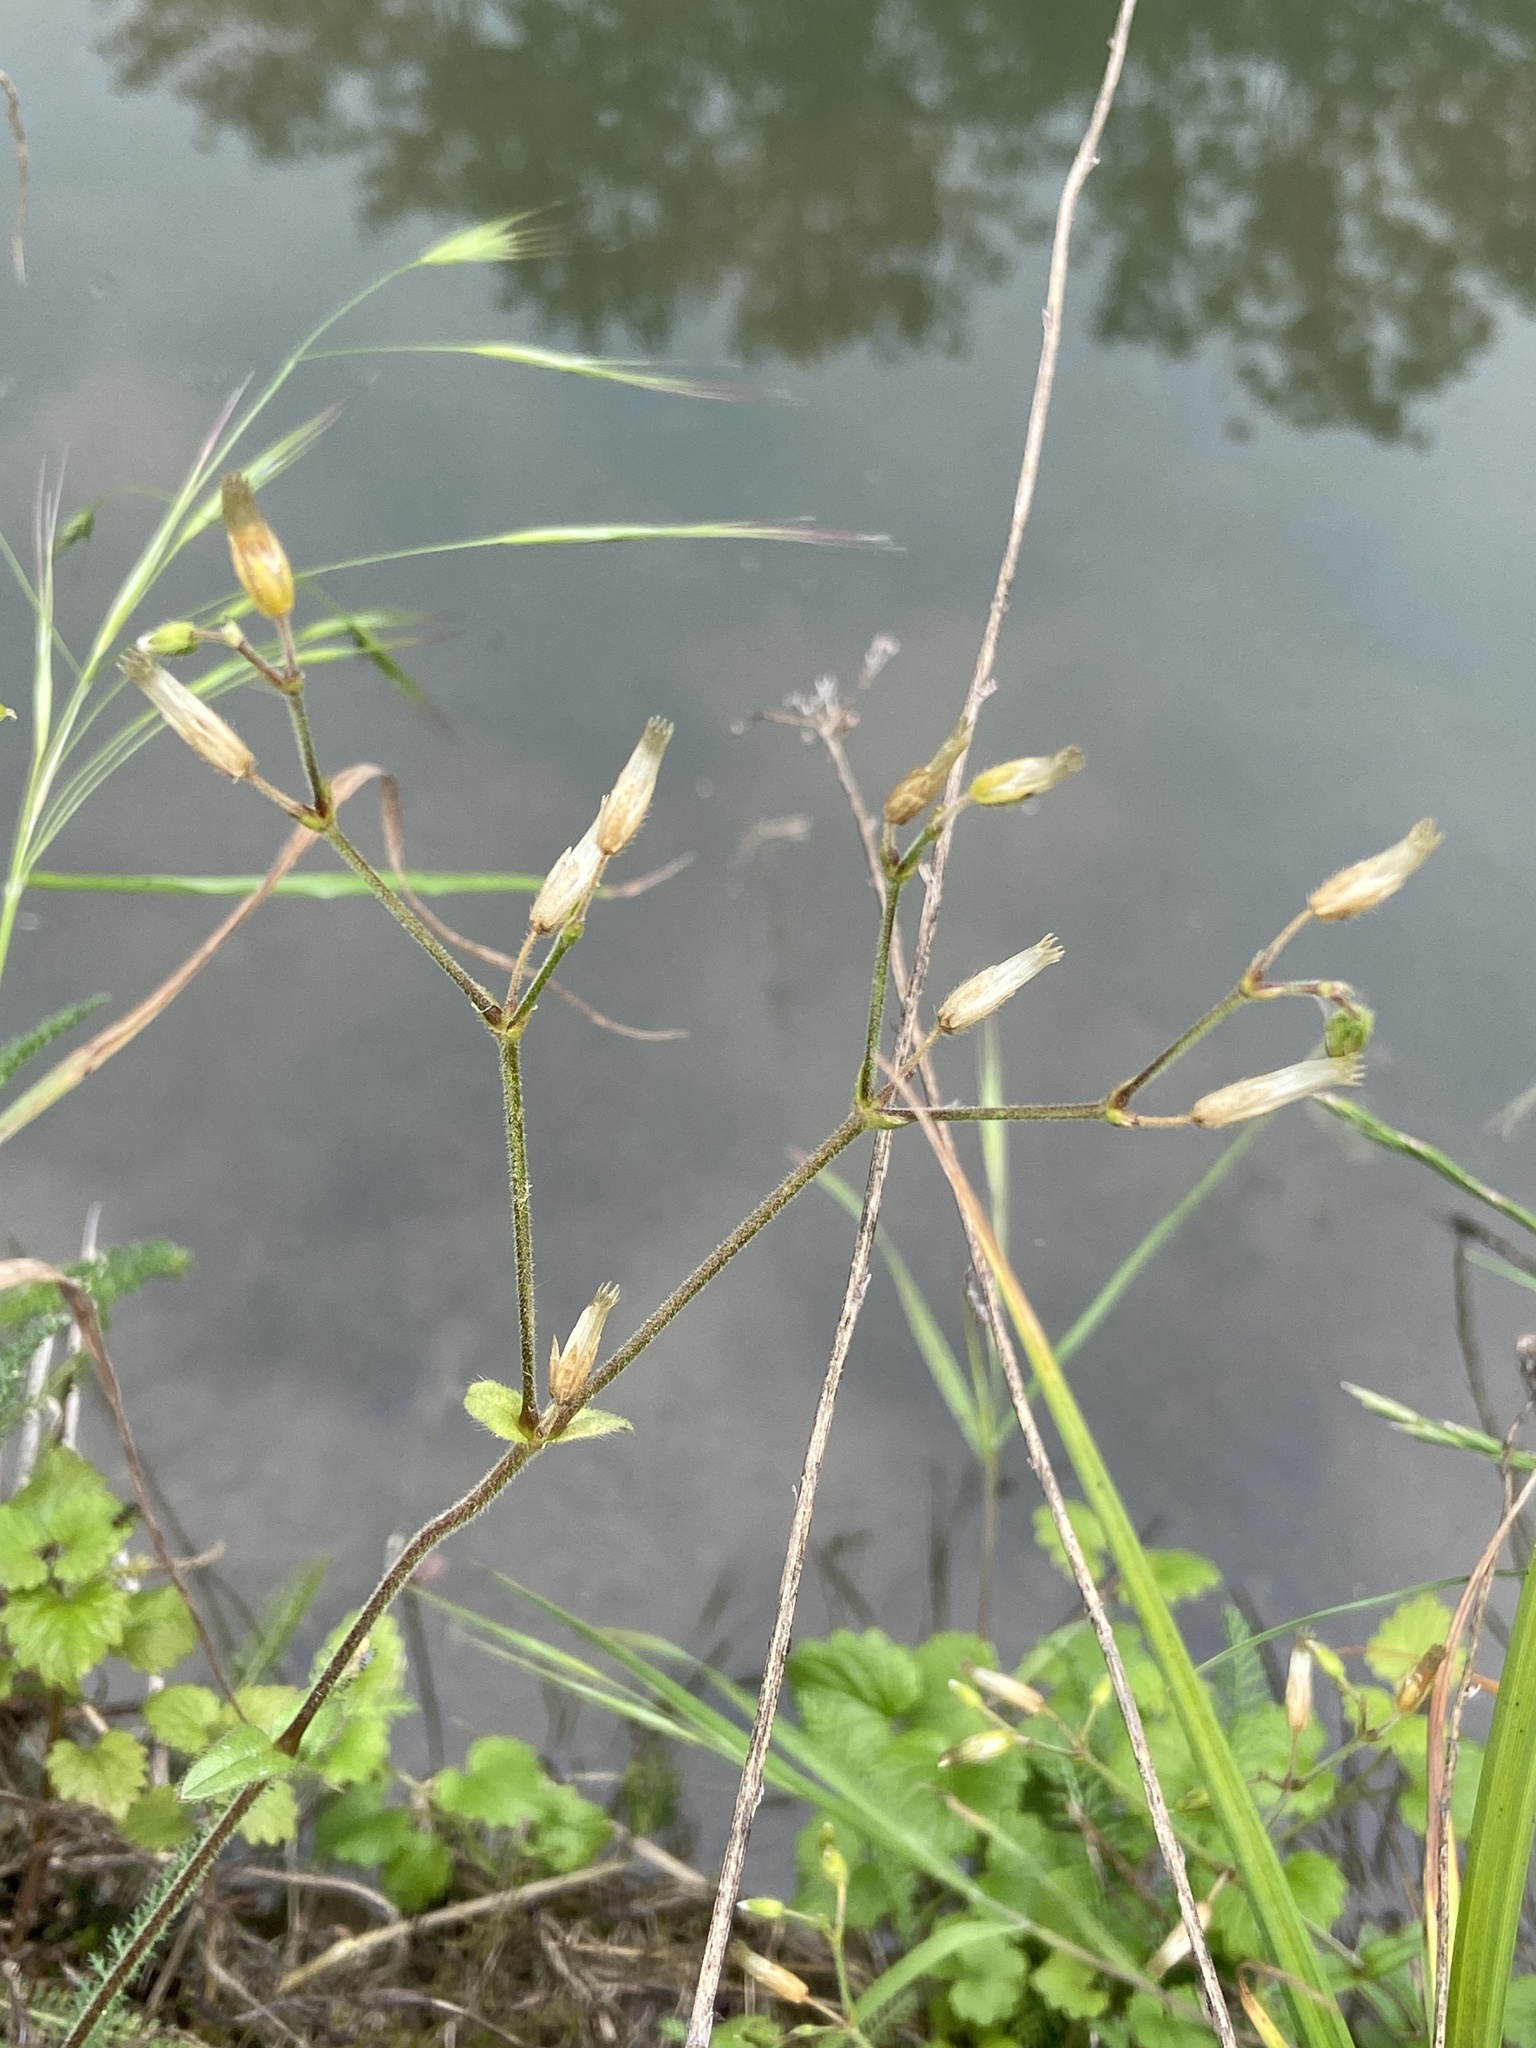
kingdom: Plantae
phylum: Tracheophyta
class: Magnoliopsida
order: Caryophyllales
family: Caryophyllaceae
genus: Cerastium
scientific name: Cerastium holosteoides
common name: Big chickweed
